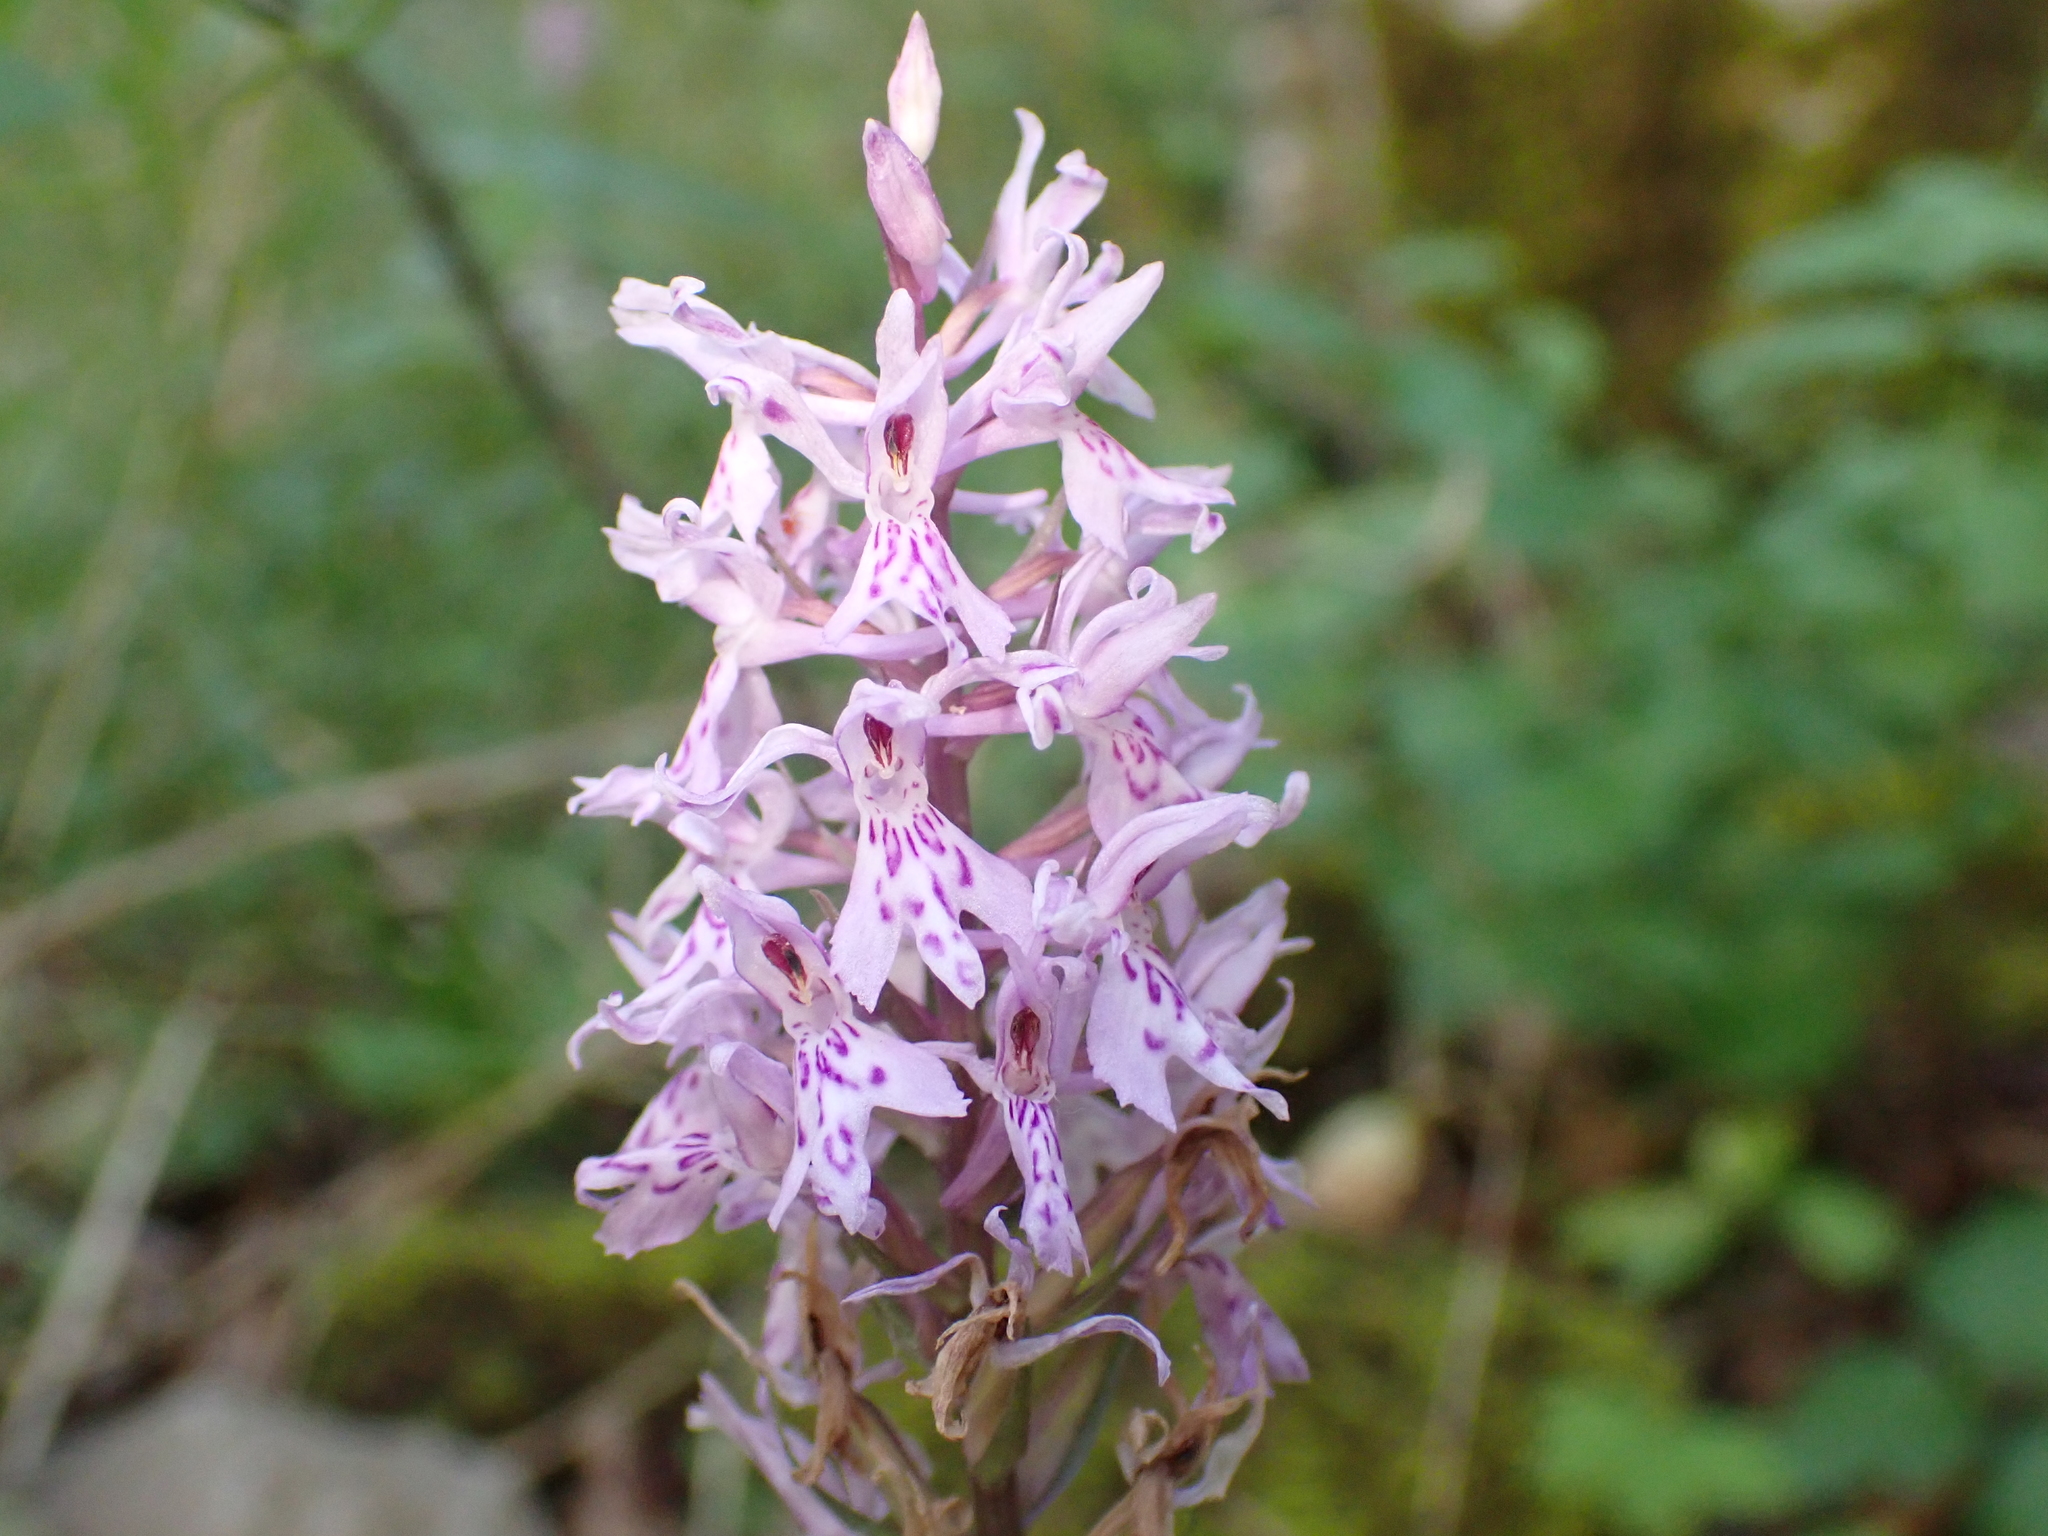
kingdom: Plantae
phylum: Tracheophyta
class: Liliopsida
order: Asparagales
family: Orchidaceae
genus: Dactylorhiza
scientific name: Dactylorhiza maculata
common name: Heath spotted-orchid
